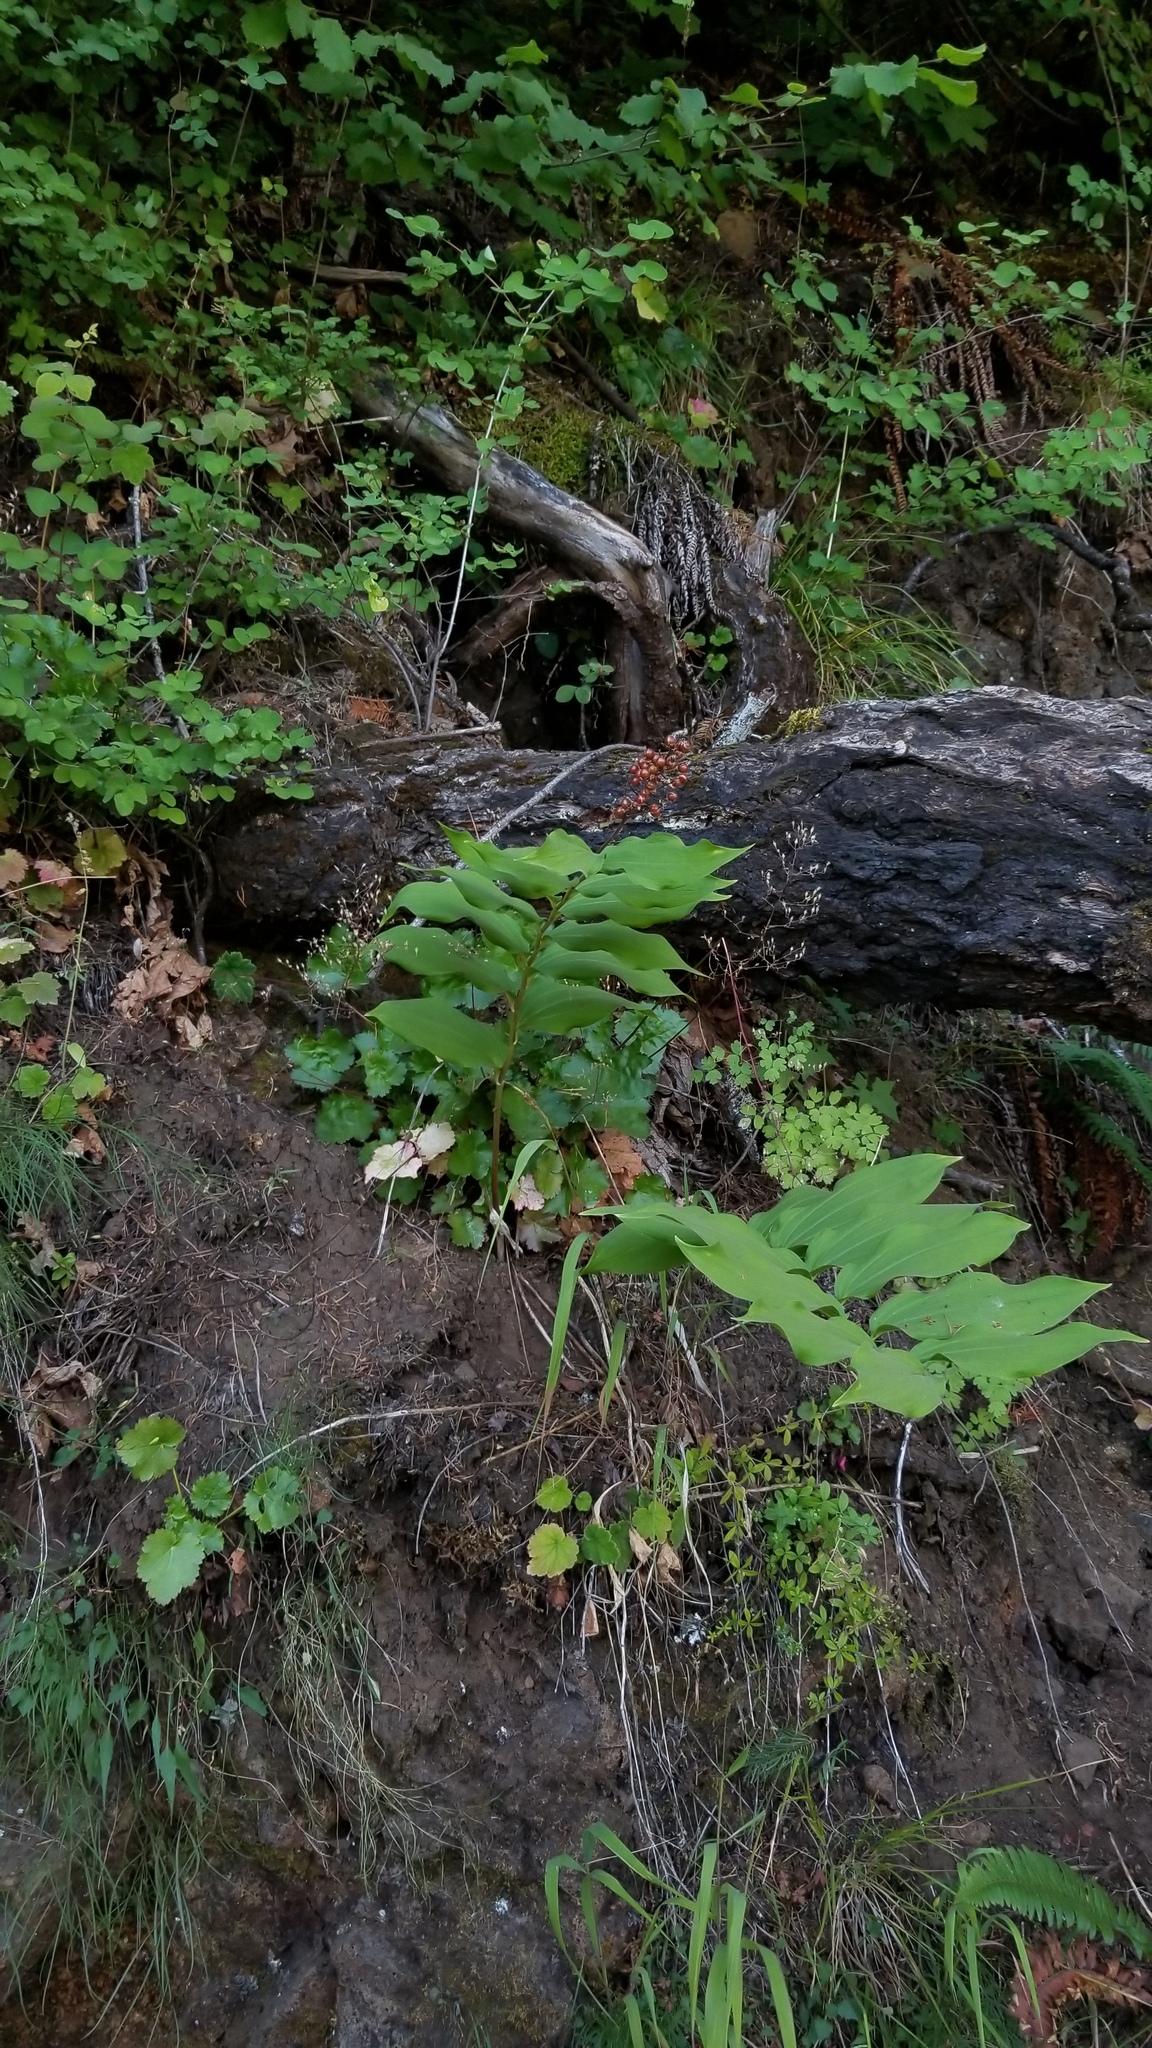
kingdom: Plantae
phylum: Tracheophyta
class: Liliopsida
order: Asparagales
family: Asparagaceae
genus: Maianthemum
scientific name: Maianthemum racemosum
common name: False spikenard
